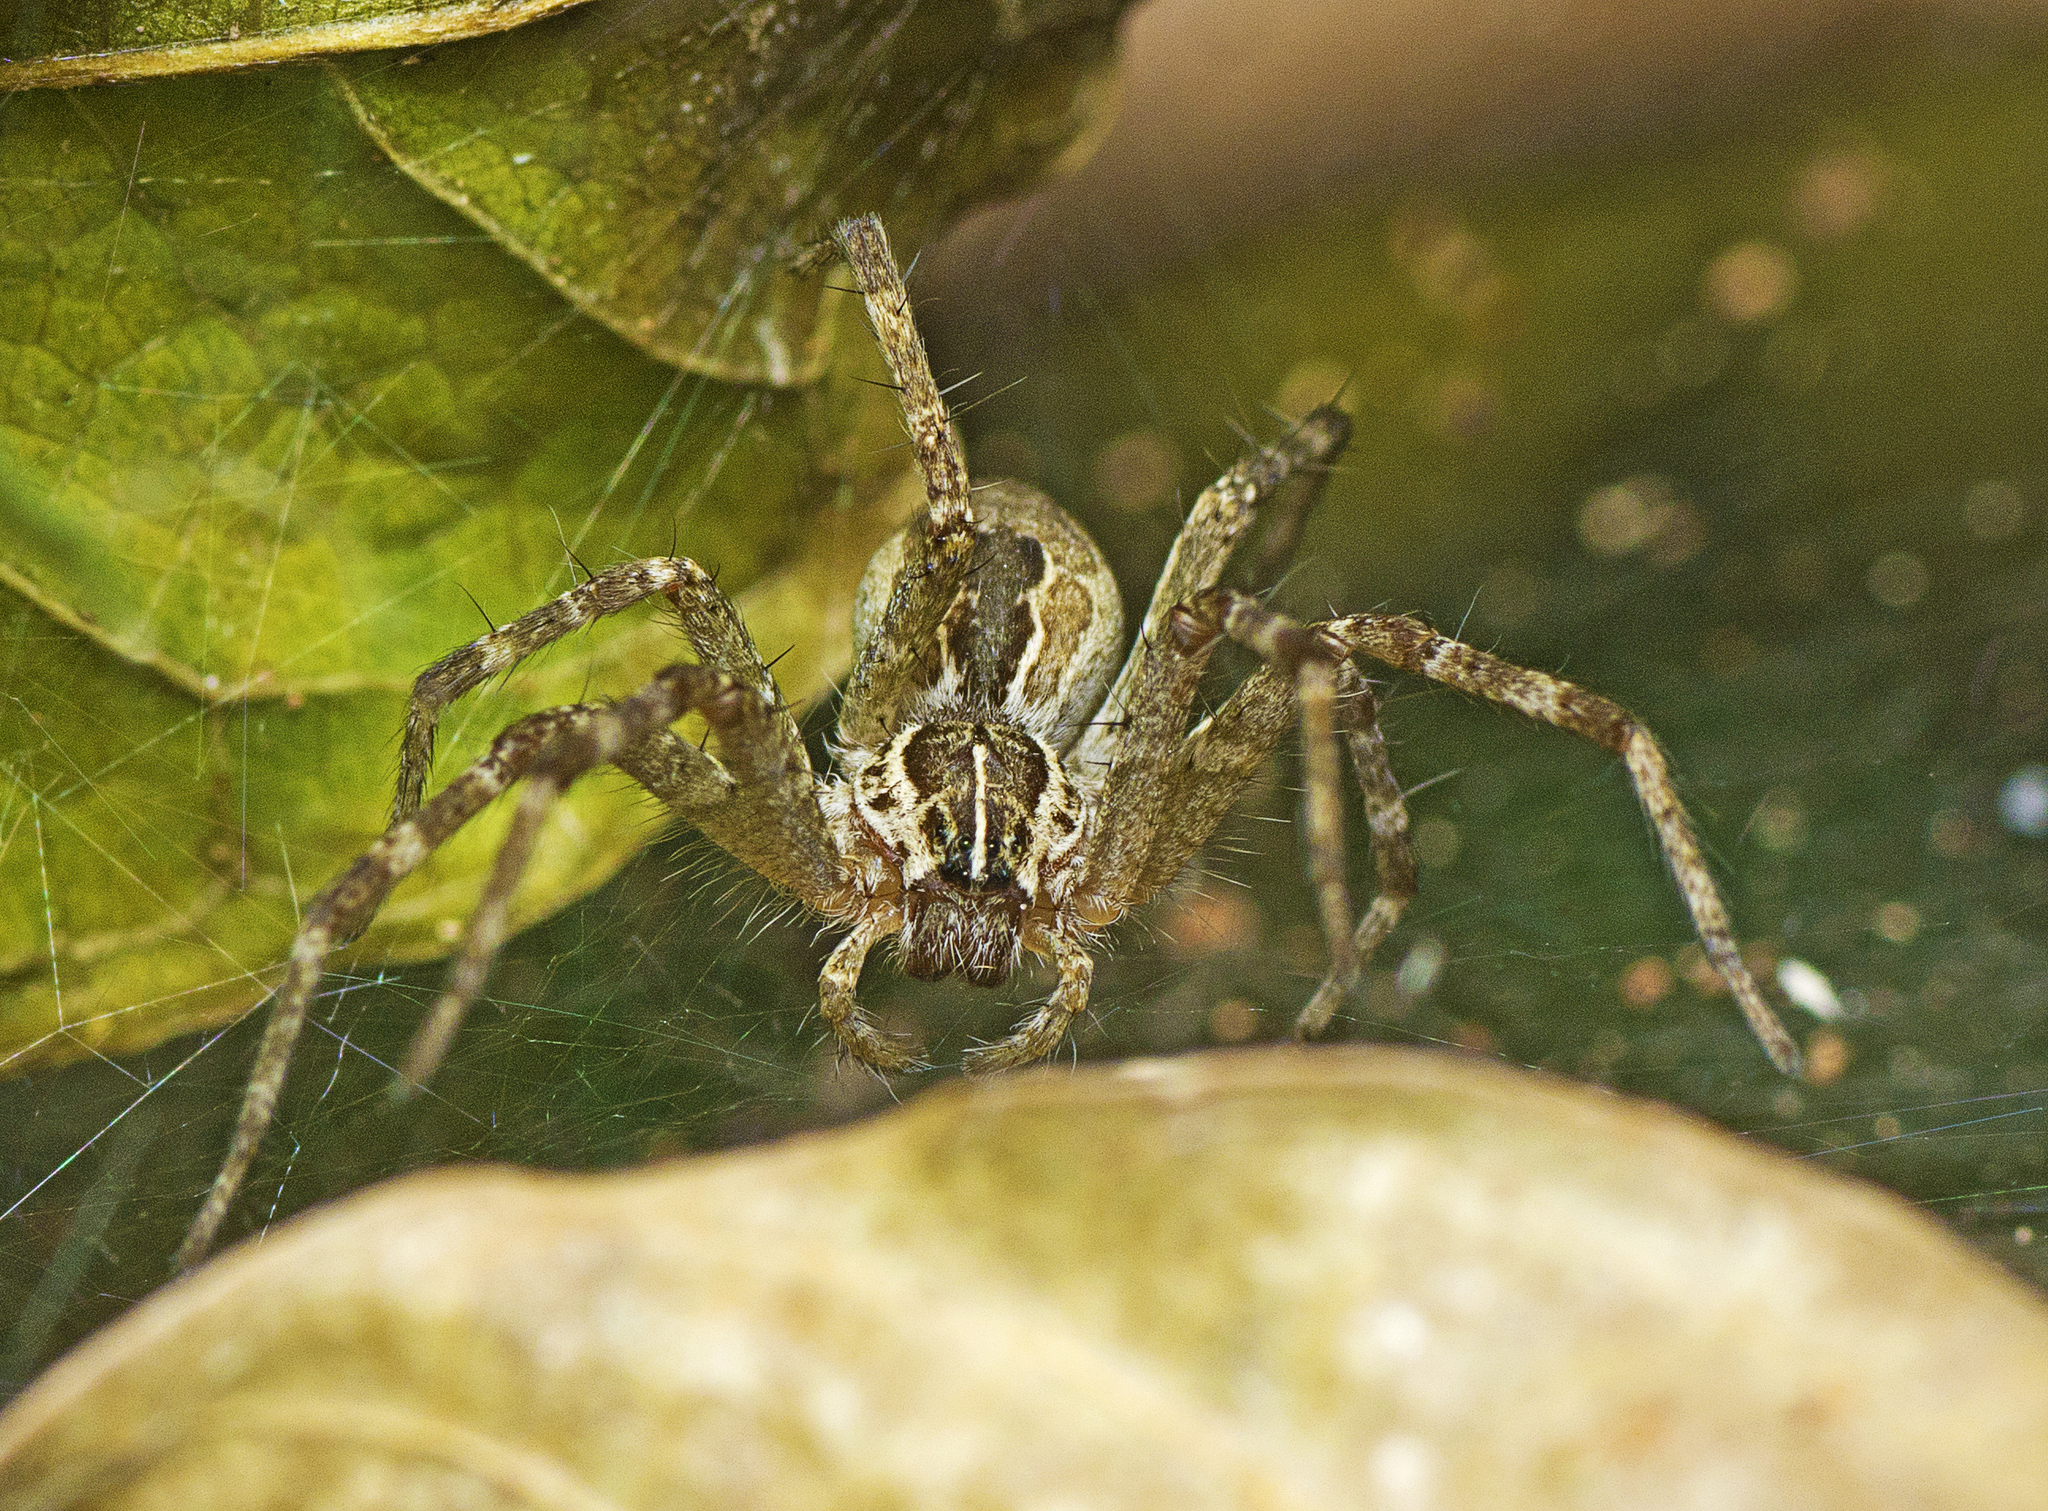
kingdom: Animalia
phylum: Arthropoda
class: Arachnida
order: Araneae
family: Pisauridae
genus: Dendrolycosa
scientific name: Dendrolycosa icadia
